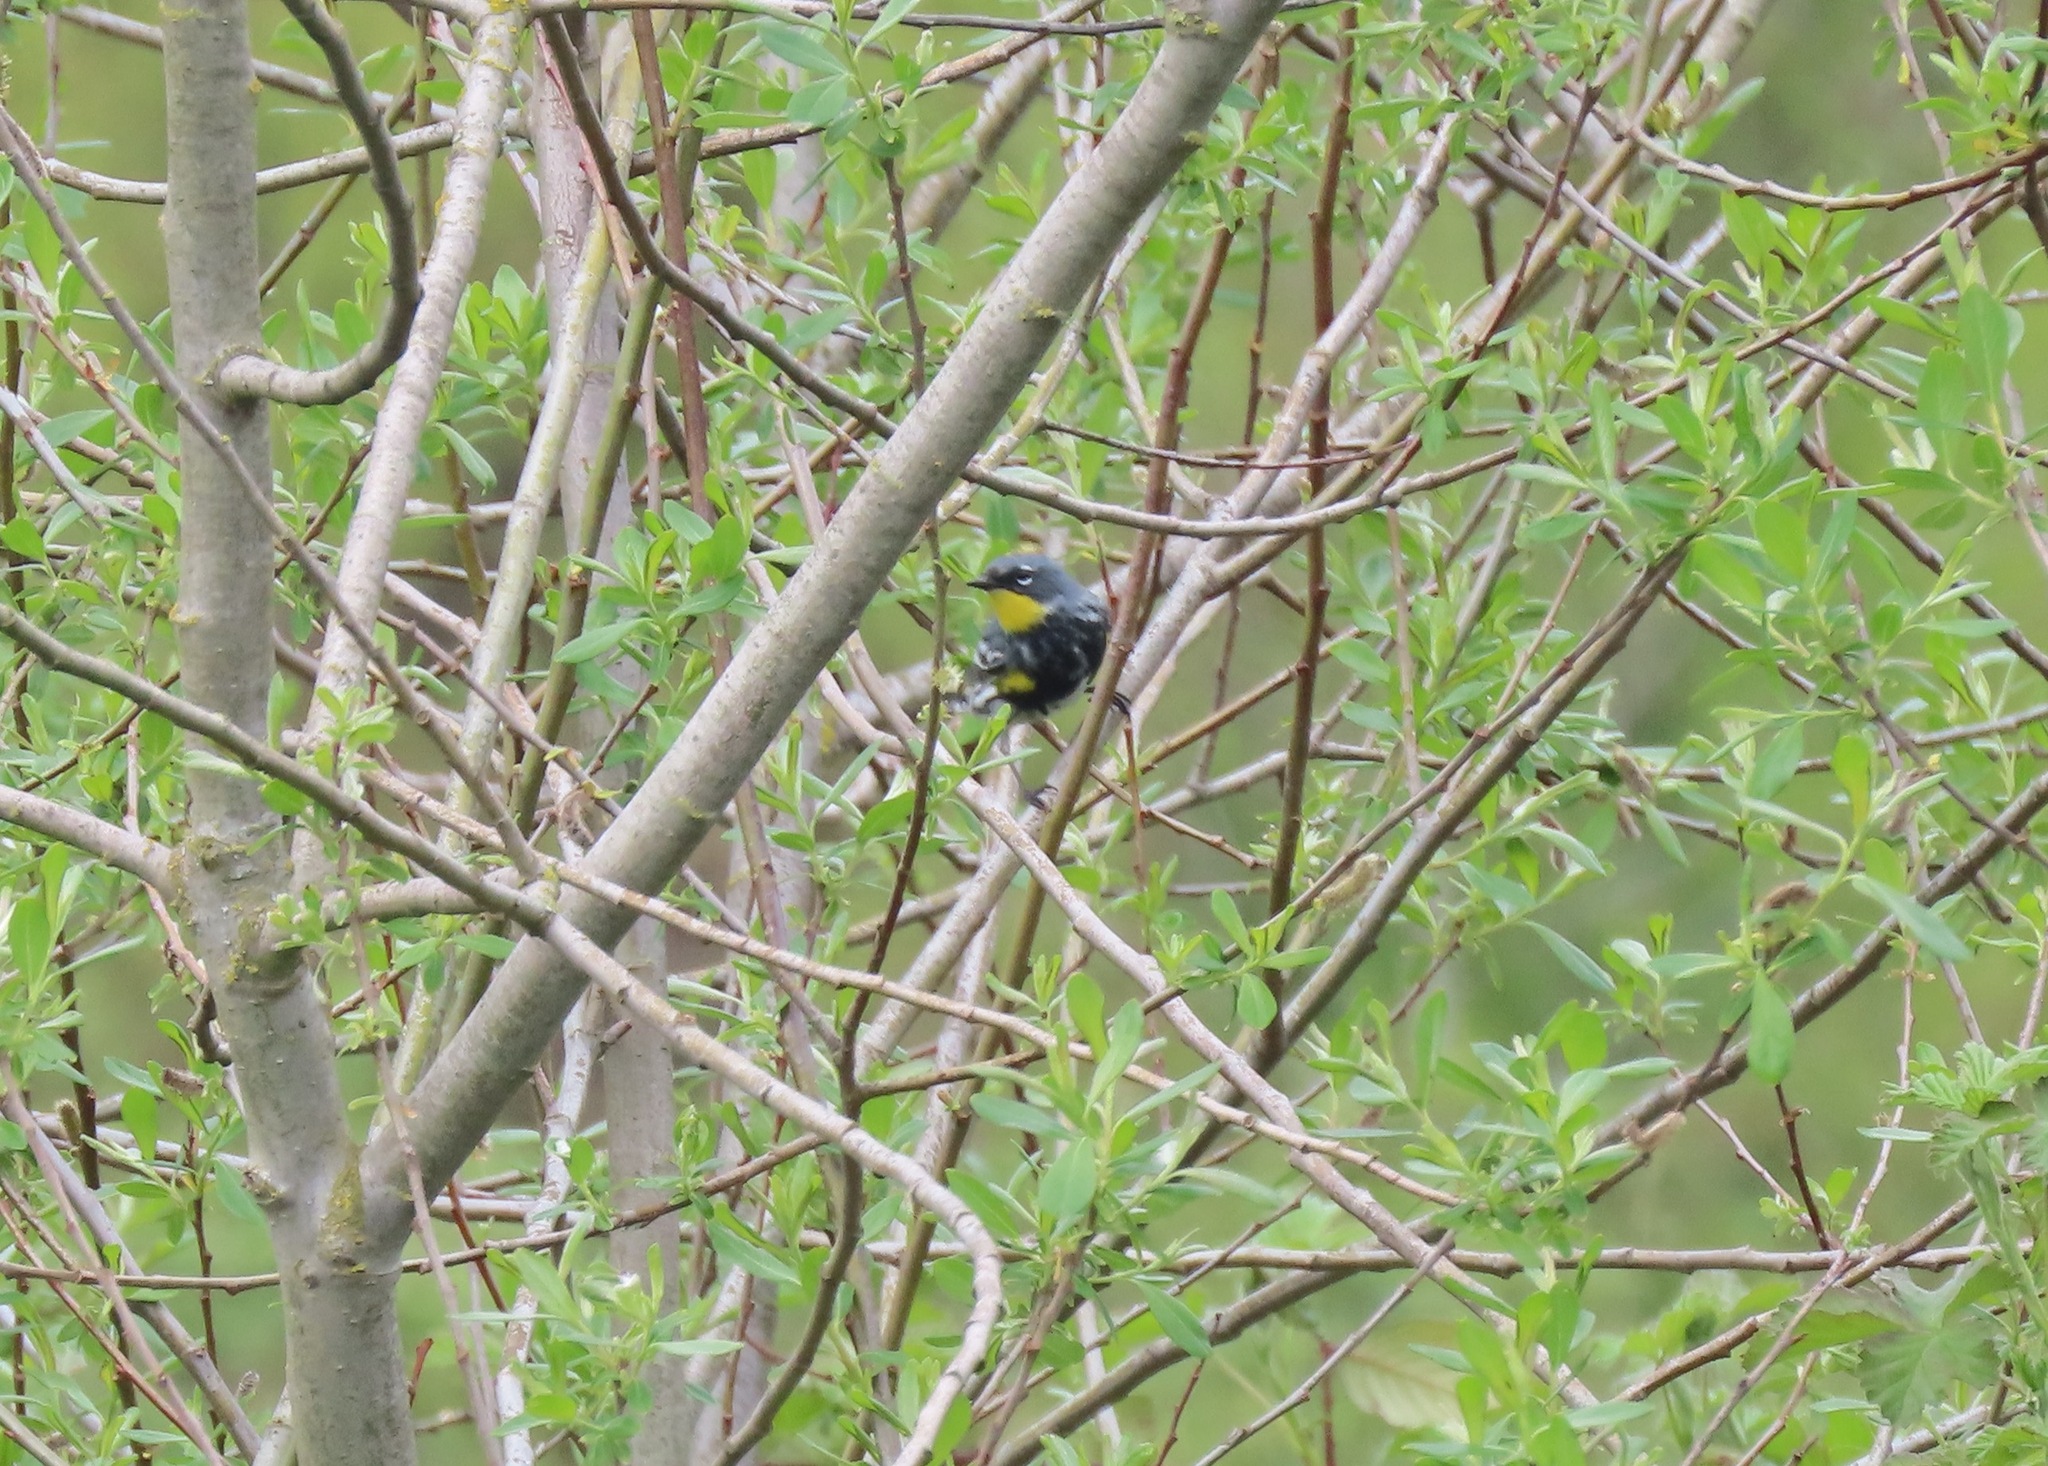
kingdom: Animalia
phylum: Chordata
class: Aves
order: Passeriformes
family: Parulidae
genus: Setophaga
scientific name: Setophaga auduboni
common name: Audubon's warbler
